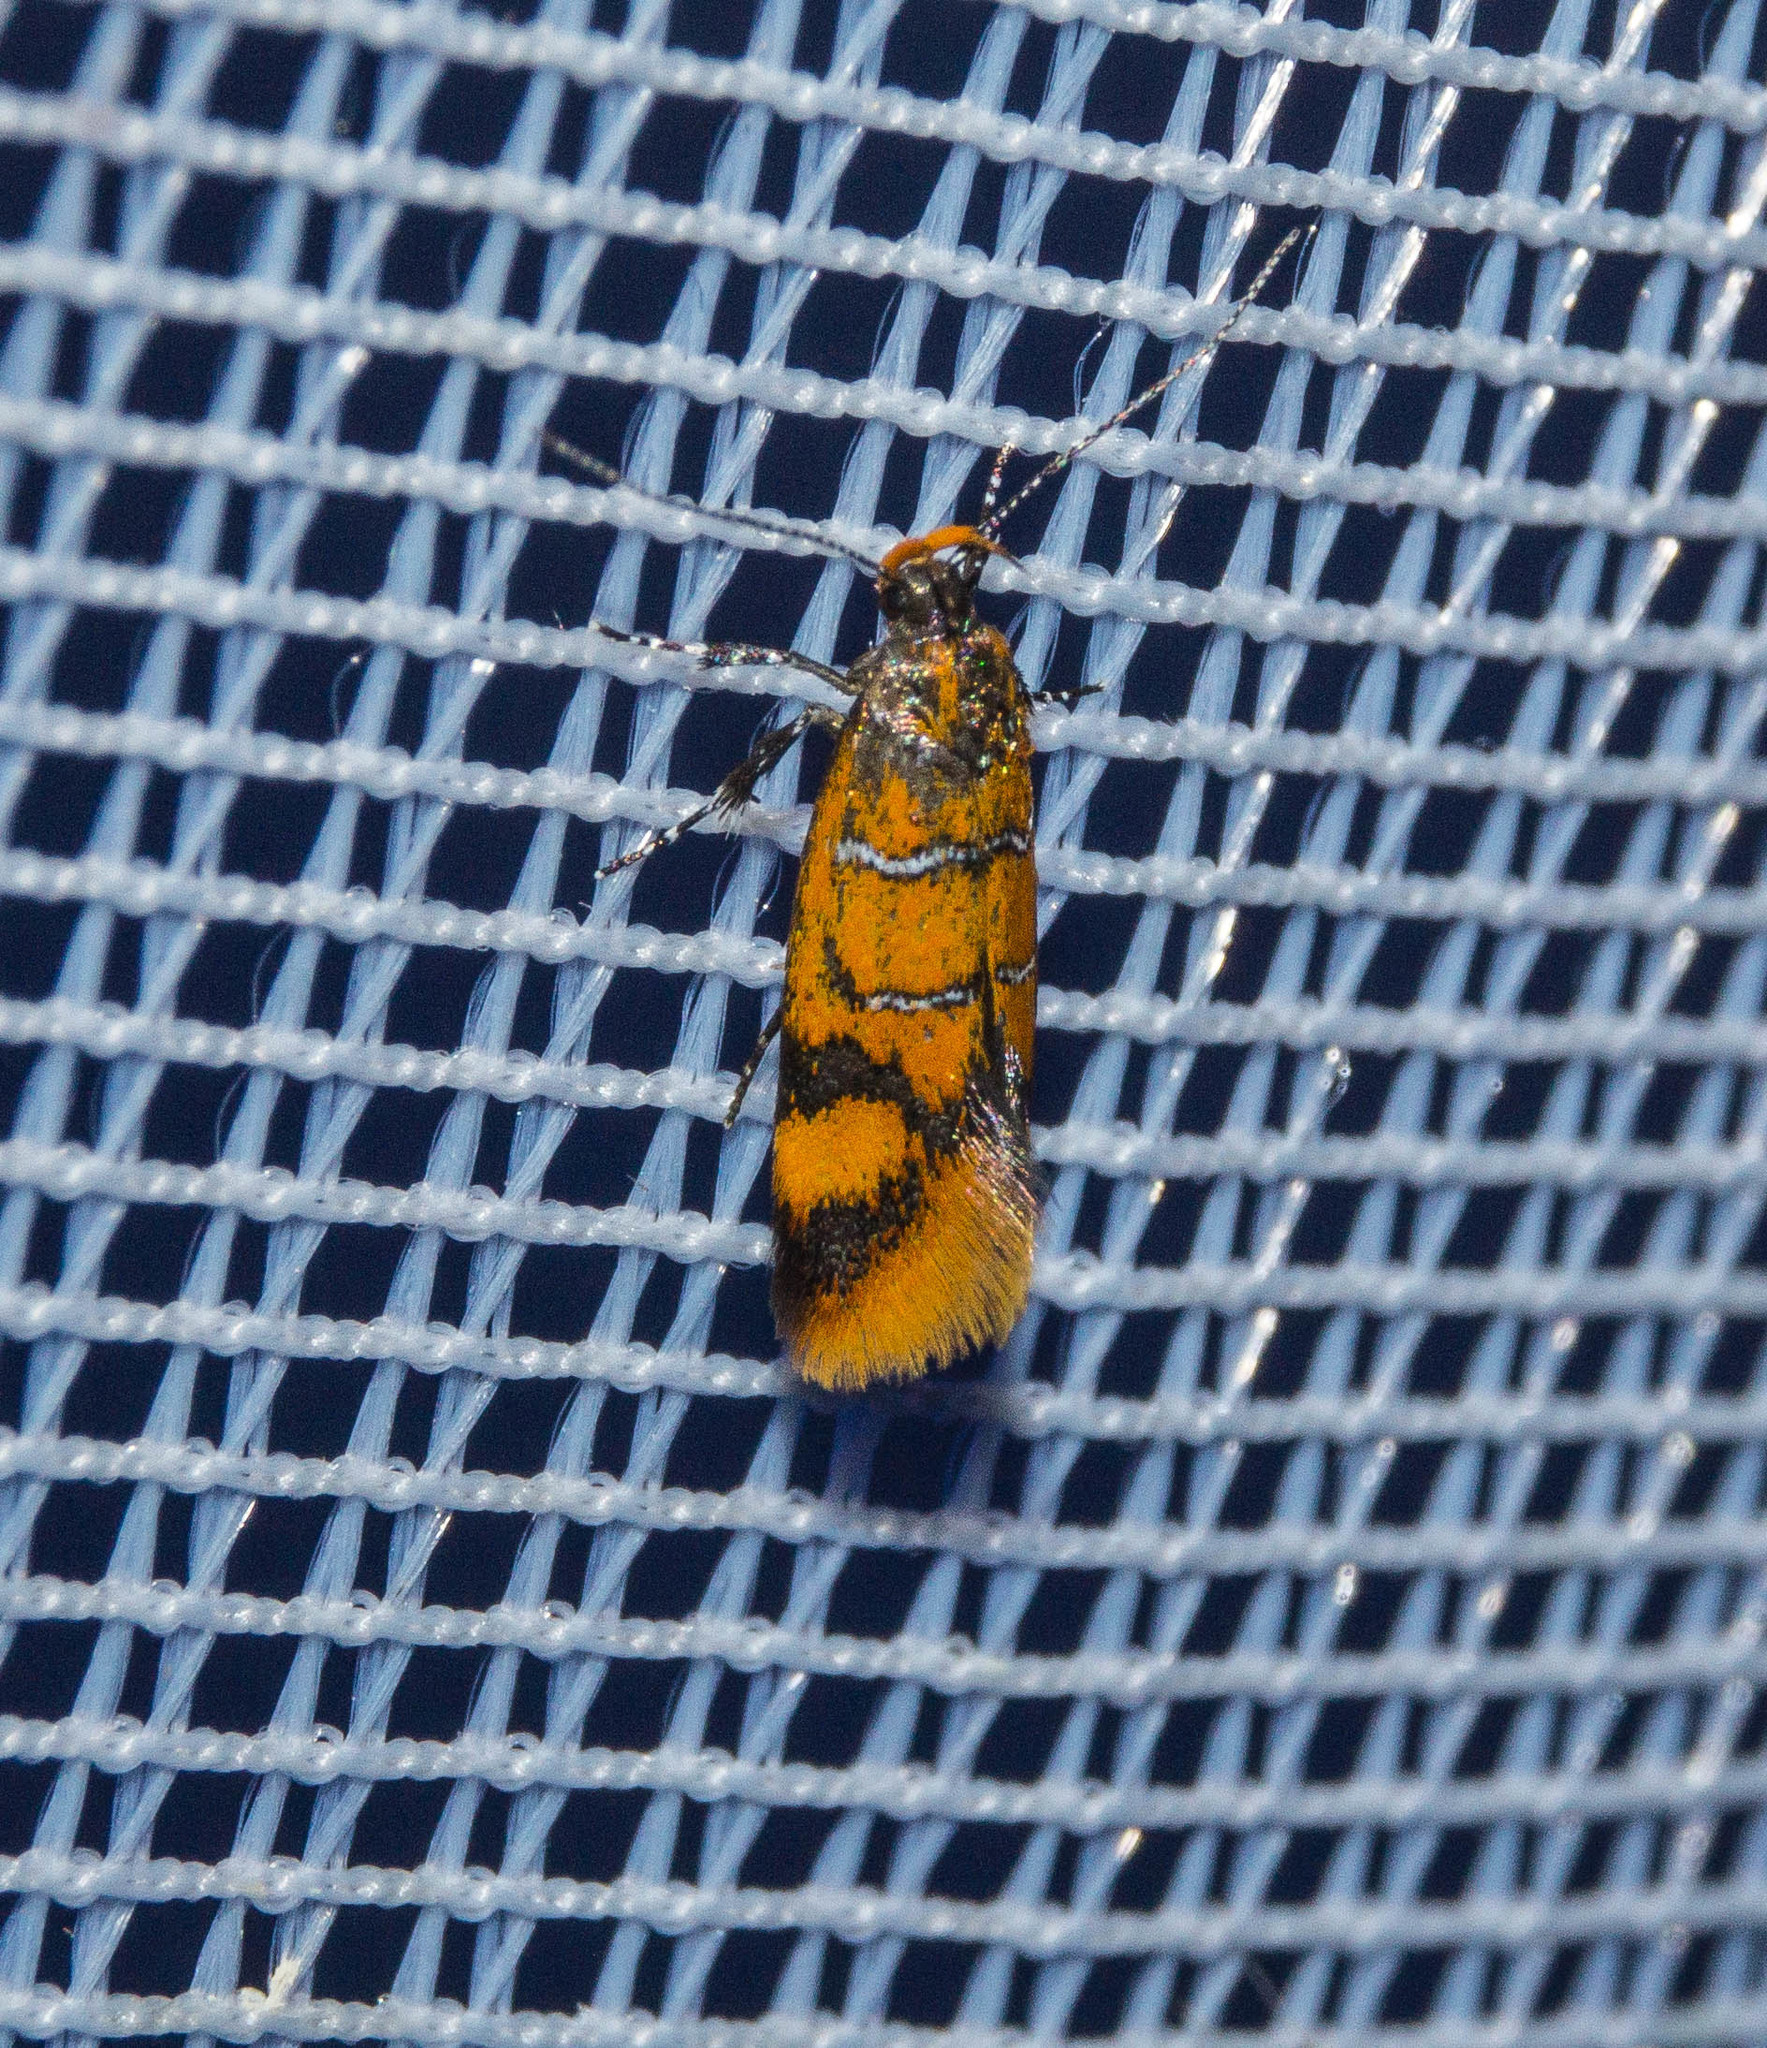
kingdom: Animalia
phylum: Arthropoda
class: Insecta
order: Lepidoptera
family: Oecophoridae
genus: Schiffermuelleria
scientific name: Schiffermuelleria procerella
